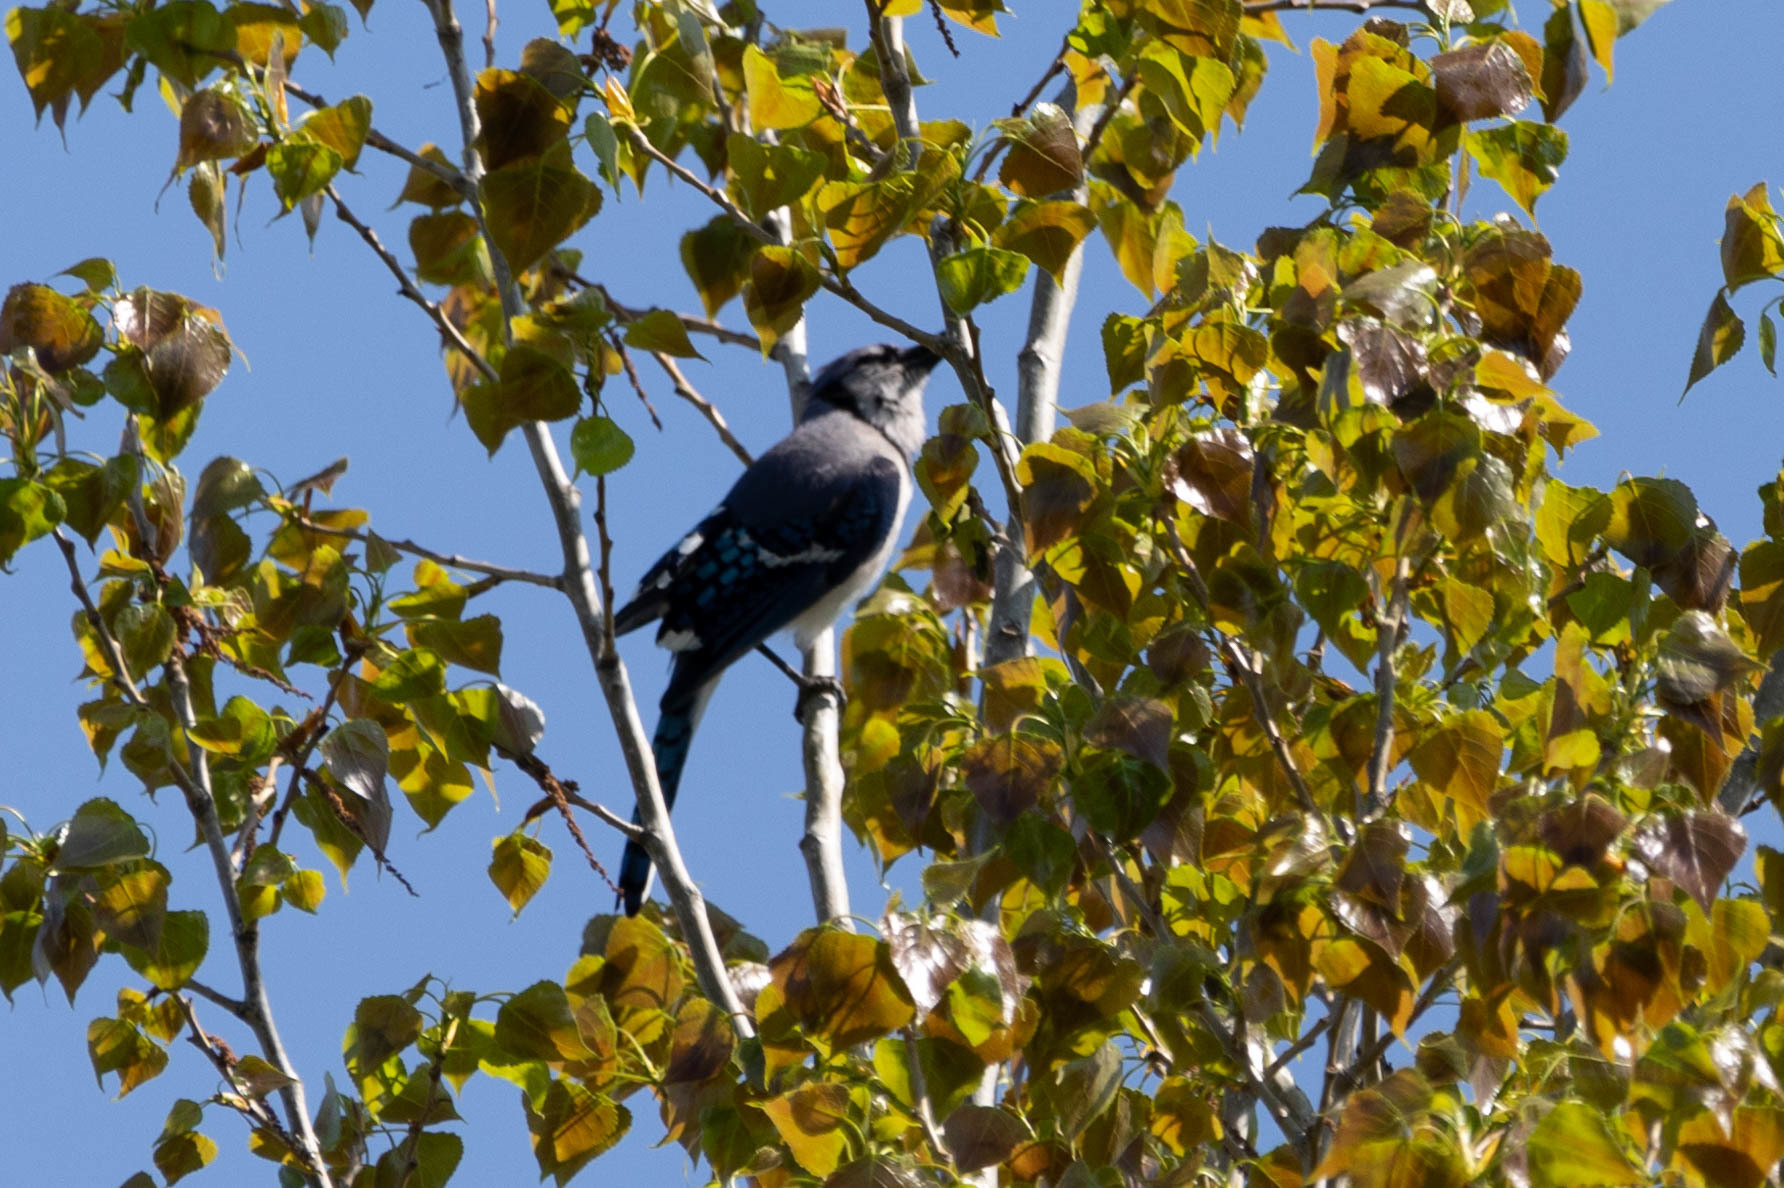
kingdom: Animalia
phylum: Chordata
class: Aves
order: Passeriformes
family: Corvidae
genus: Cyanocitta
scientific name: Cyanocitta cristata
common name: Blue jay
